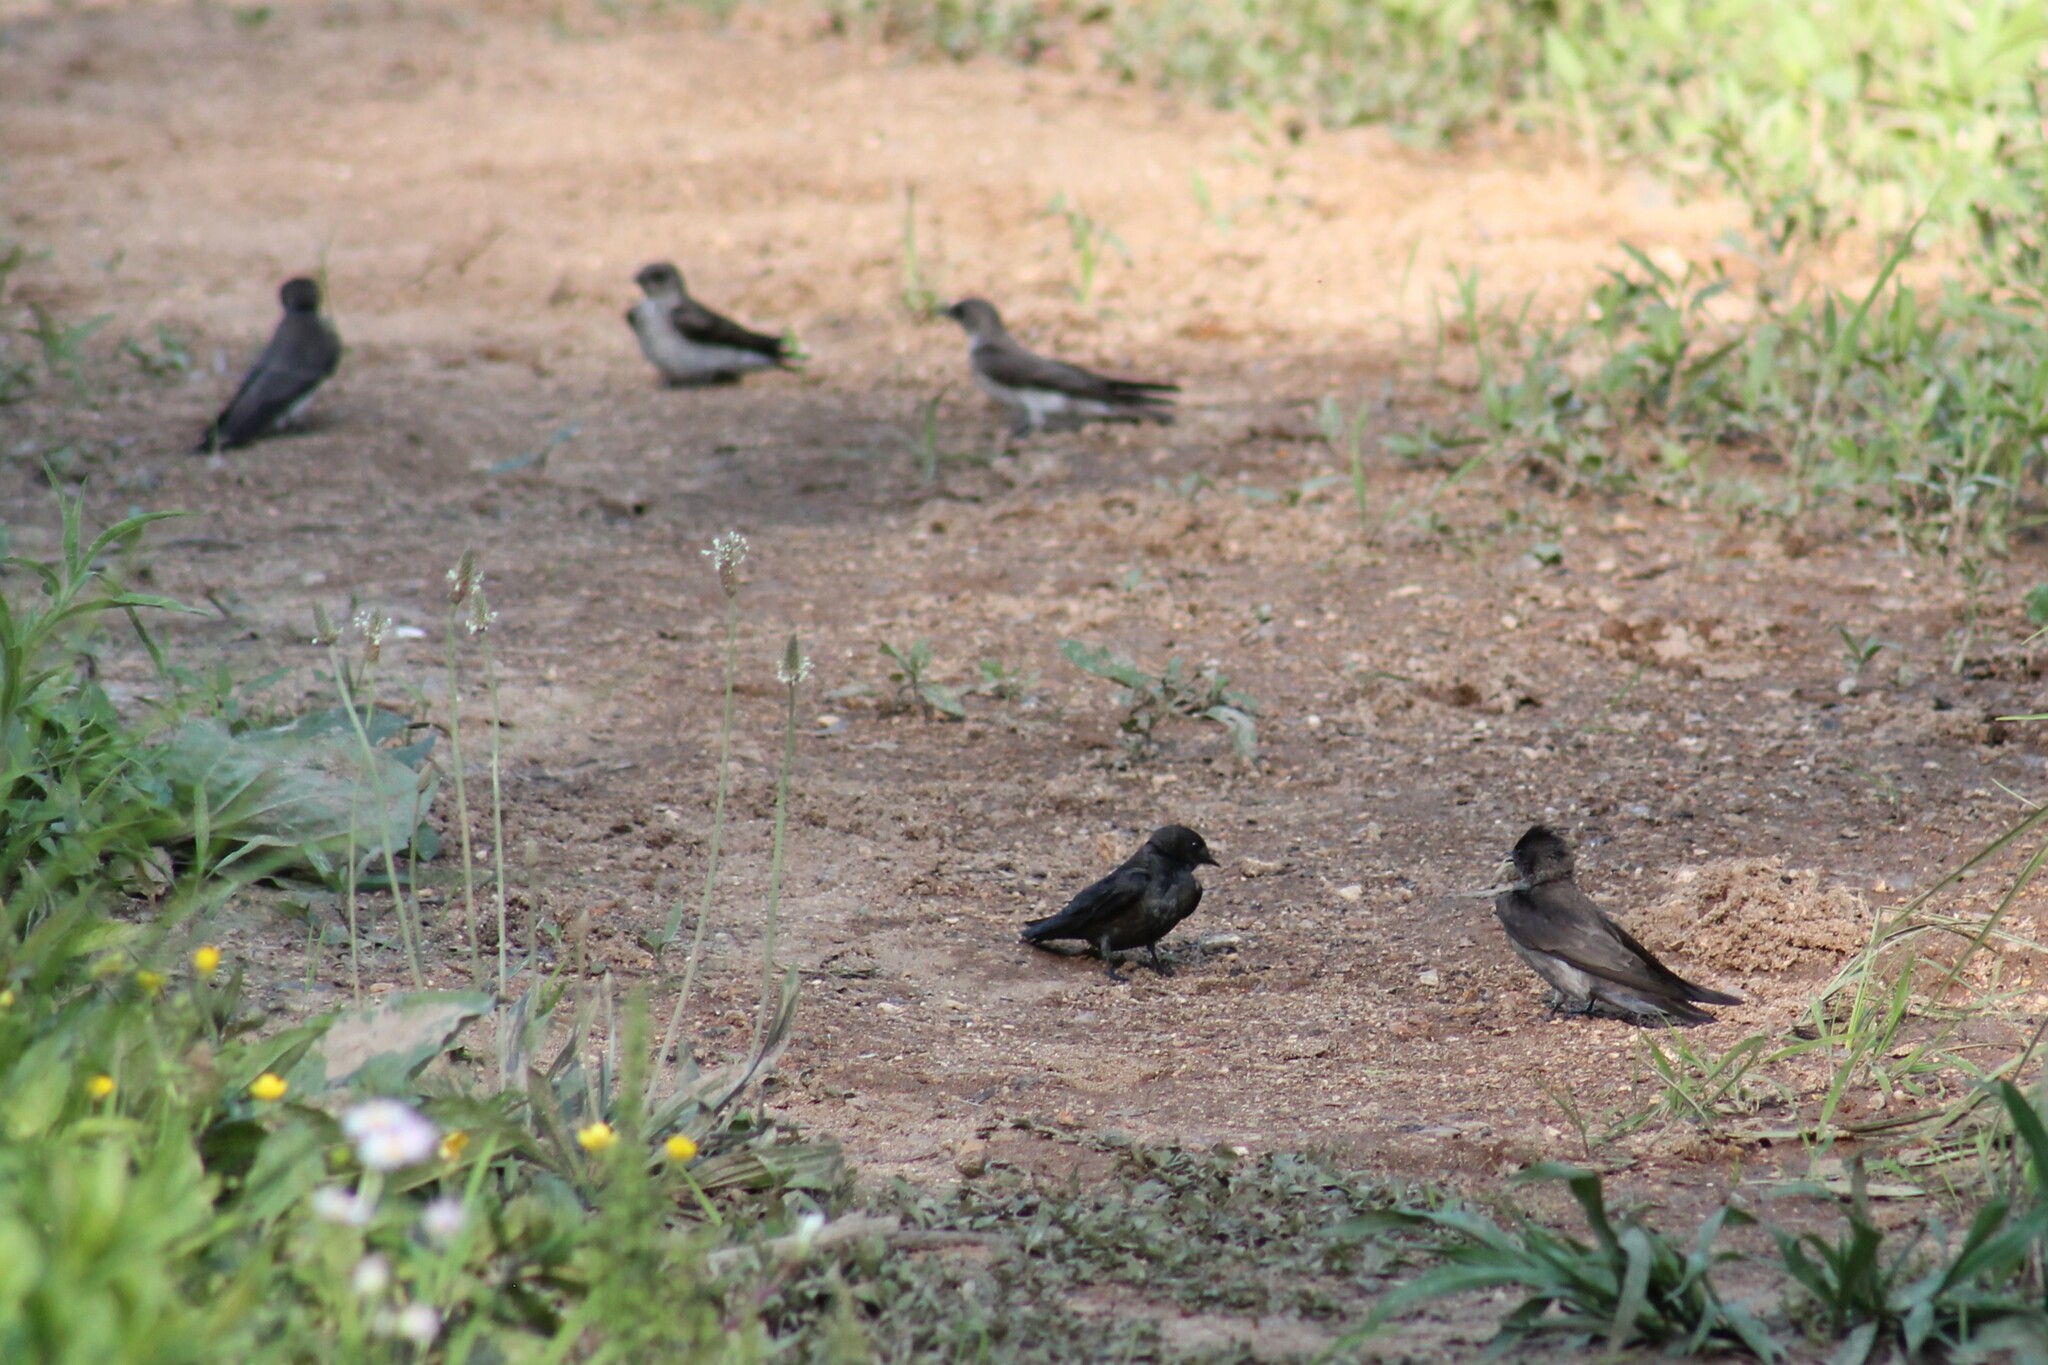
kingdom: Animalia
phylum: Chordata
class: Aves
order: Passeriformes
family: Hirundinidae
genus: Progne
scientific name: Progne subis
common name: Purple martin
